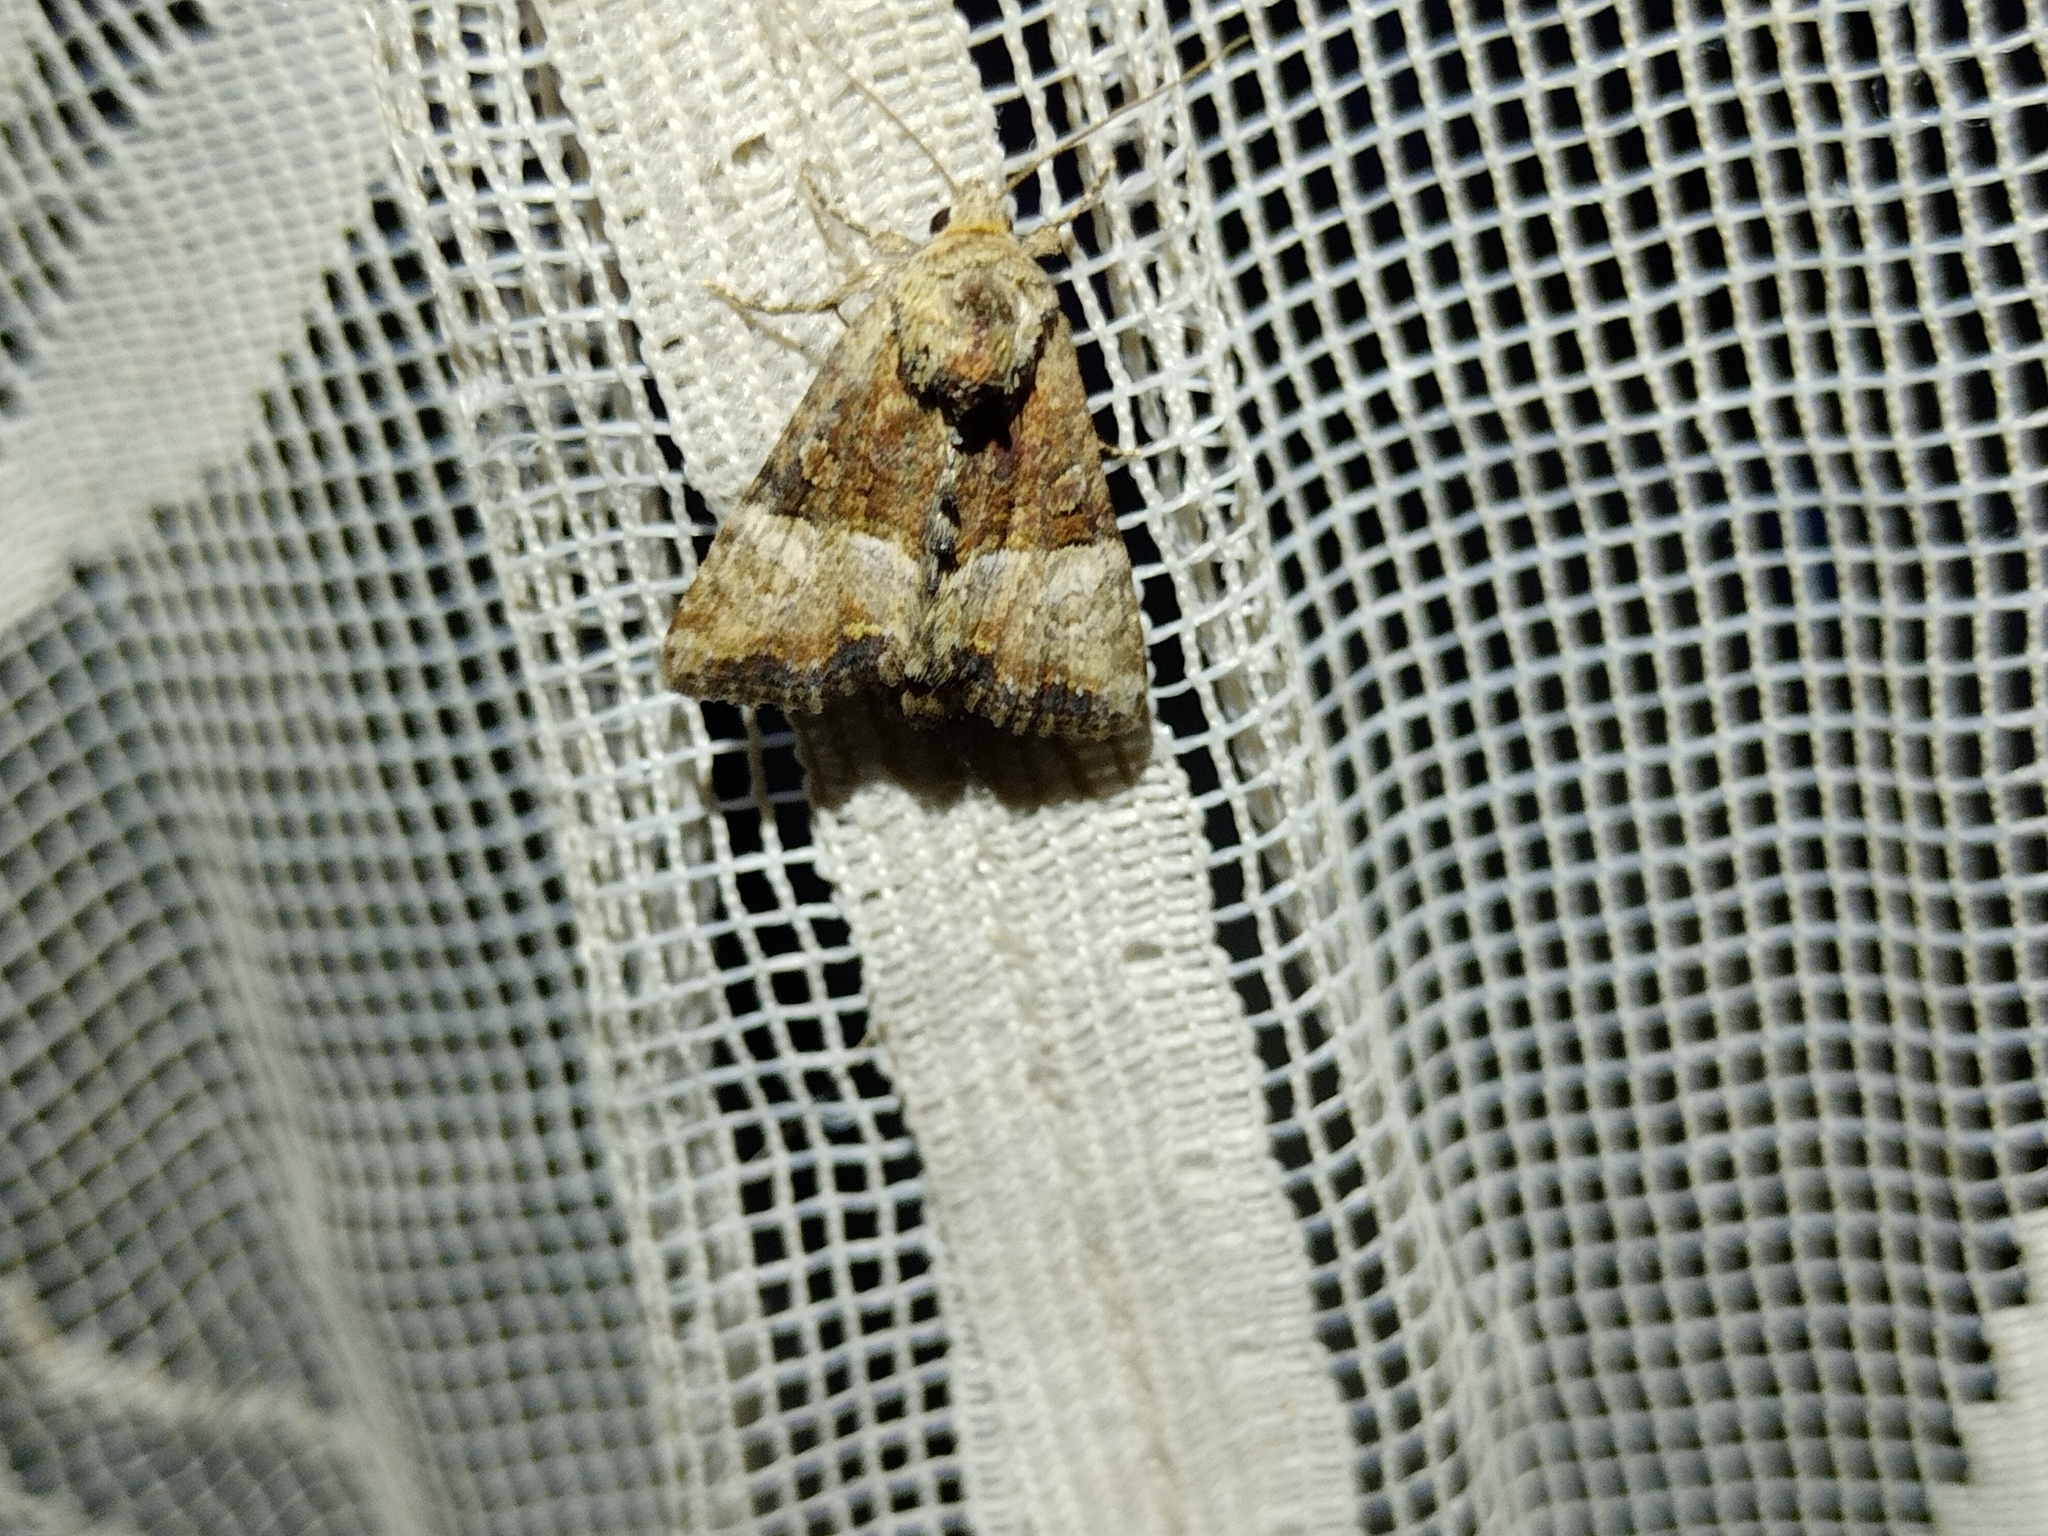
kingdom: Animalia
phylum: Arthropoda
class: Insecta
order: Lepidoptera
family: Noctuidae
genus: Mesoligia
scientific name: Mesoligia furuncula
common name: Cloaked minor
